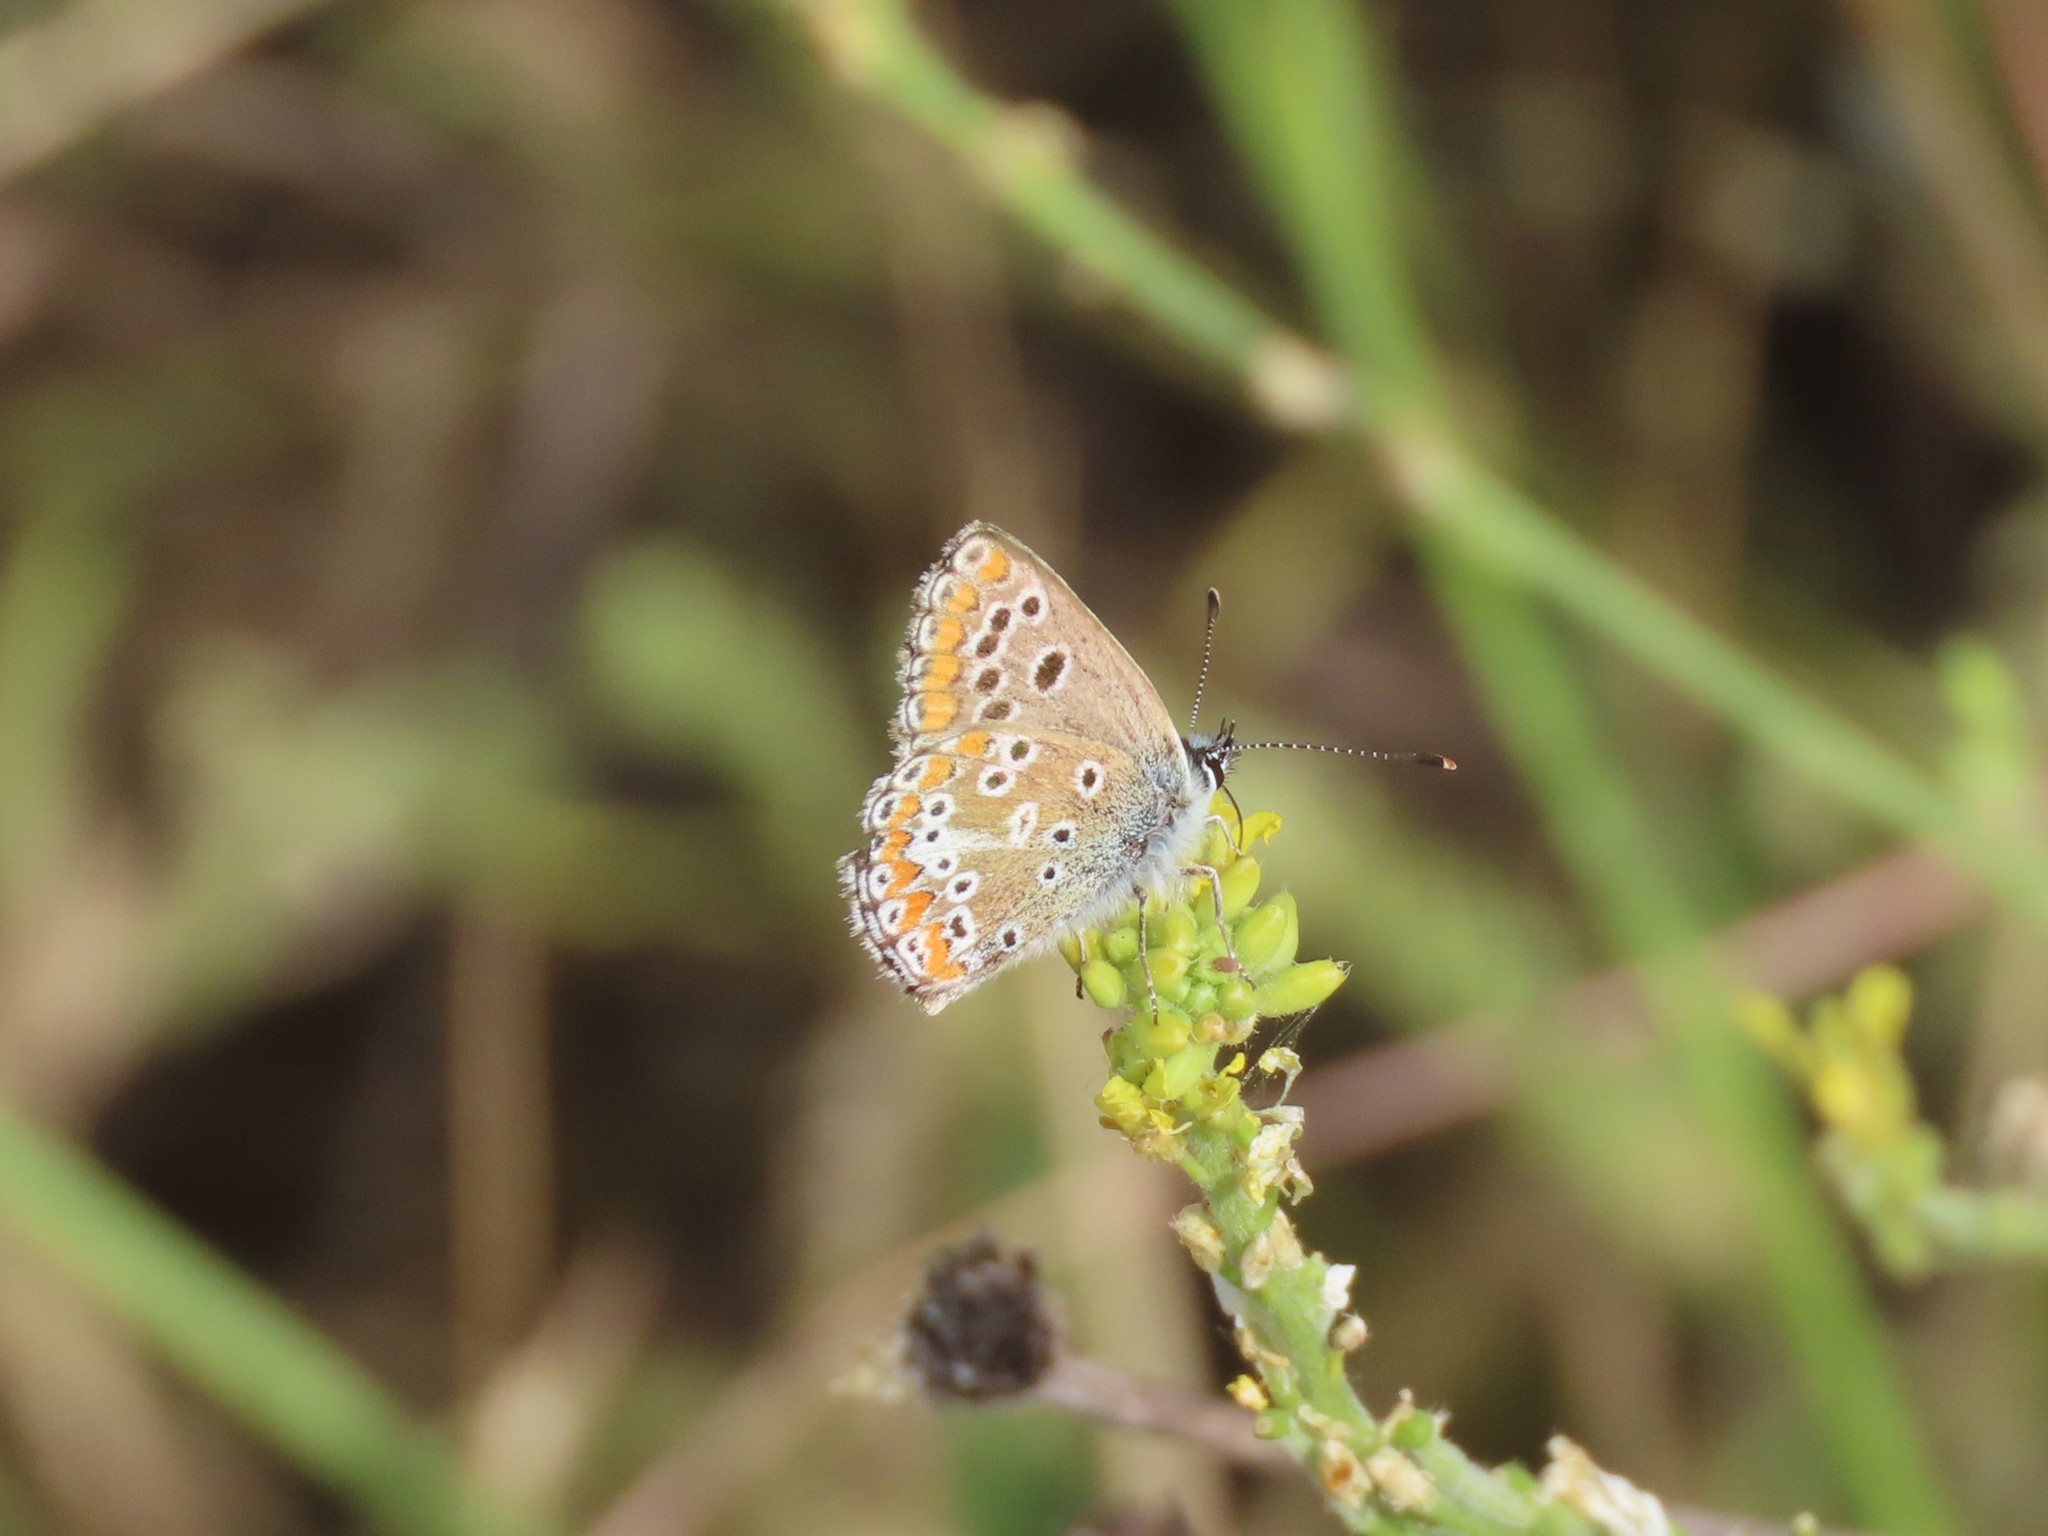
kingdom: Animalia
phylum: Arthropoda
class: Insecta
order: Lepidoptera
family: Lycaenidae
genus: Lycaena
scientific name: Lycaena phlaeas
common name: Small copper
